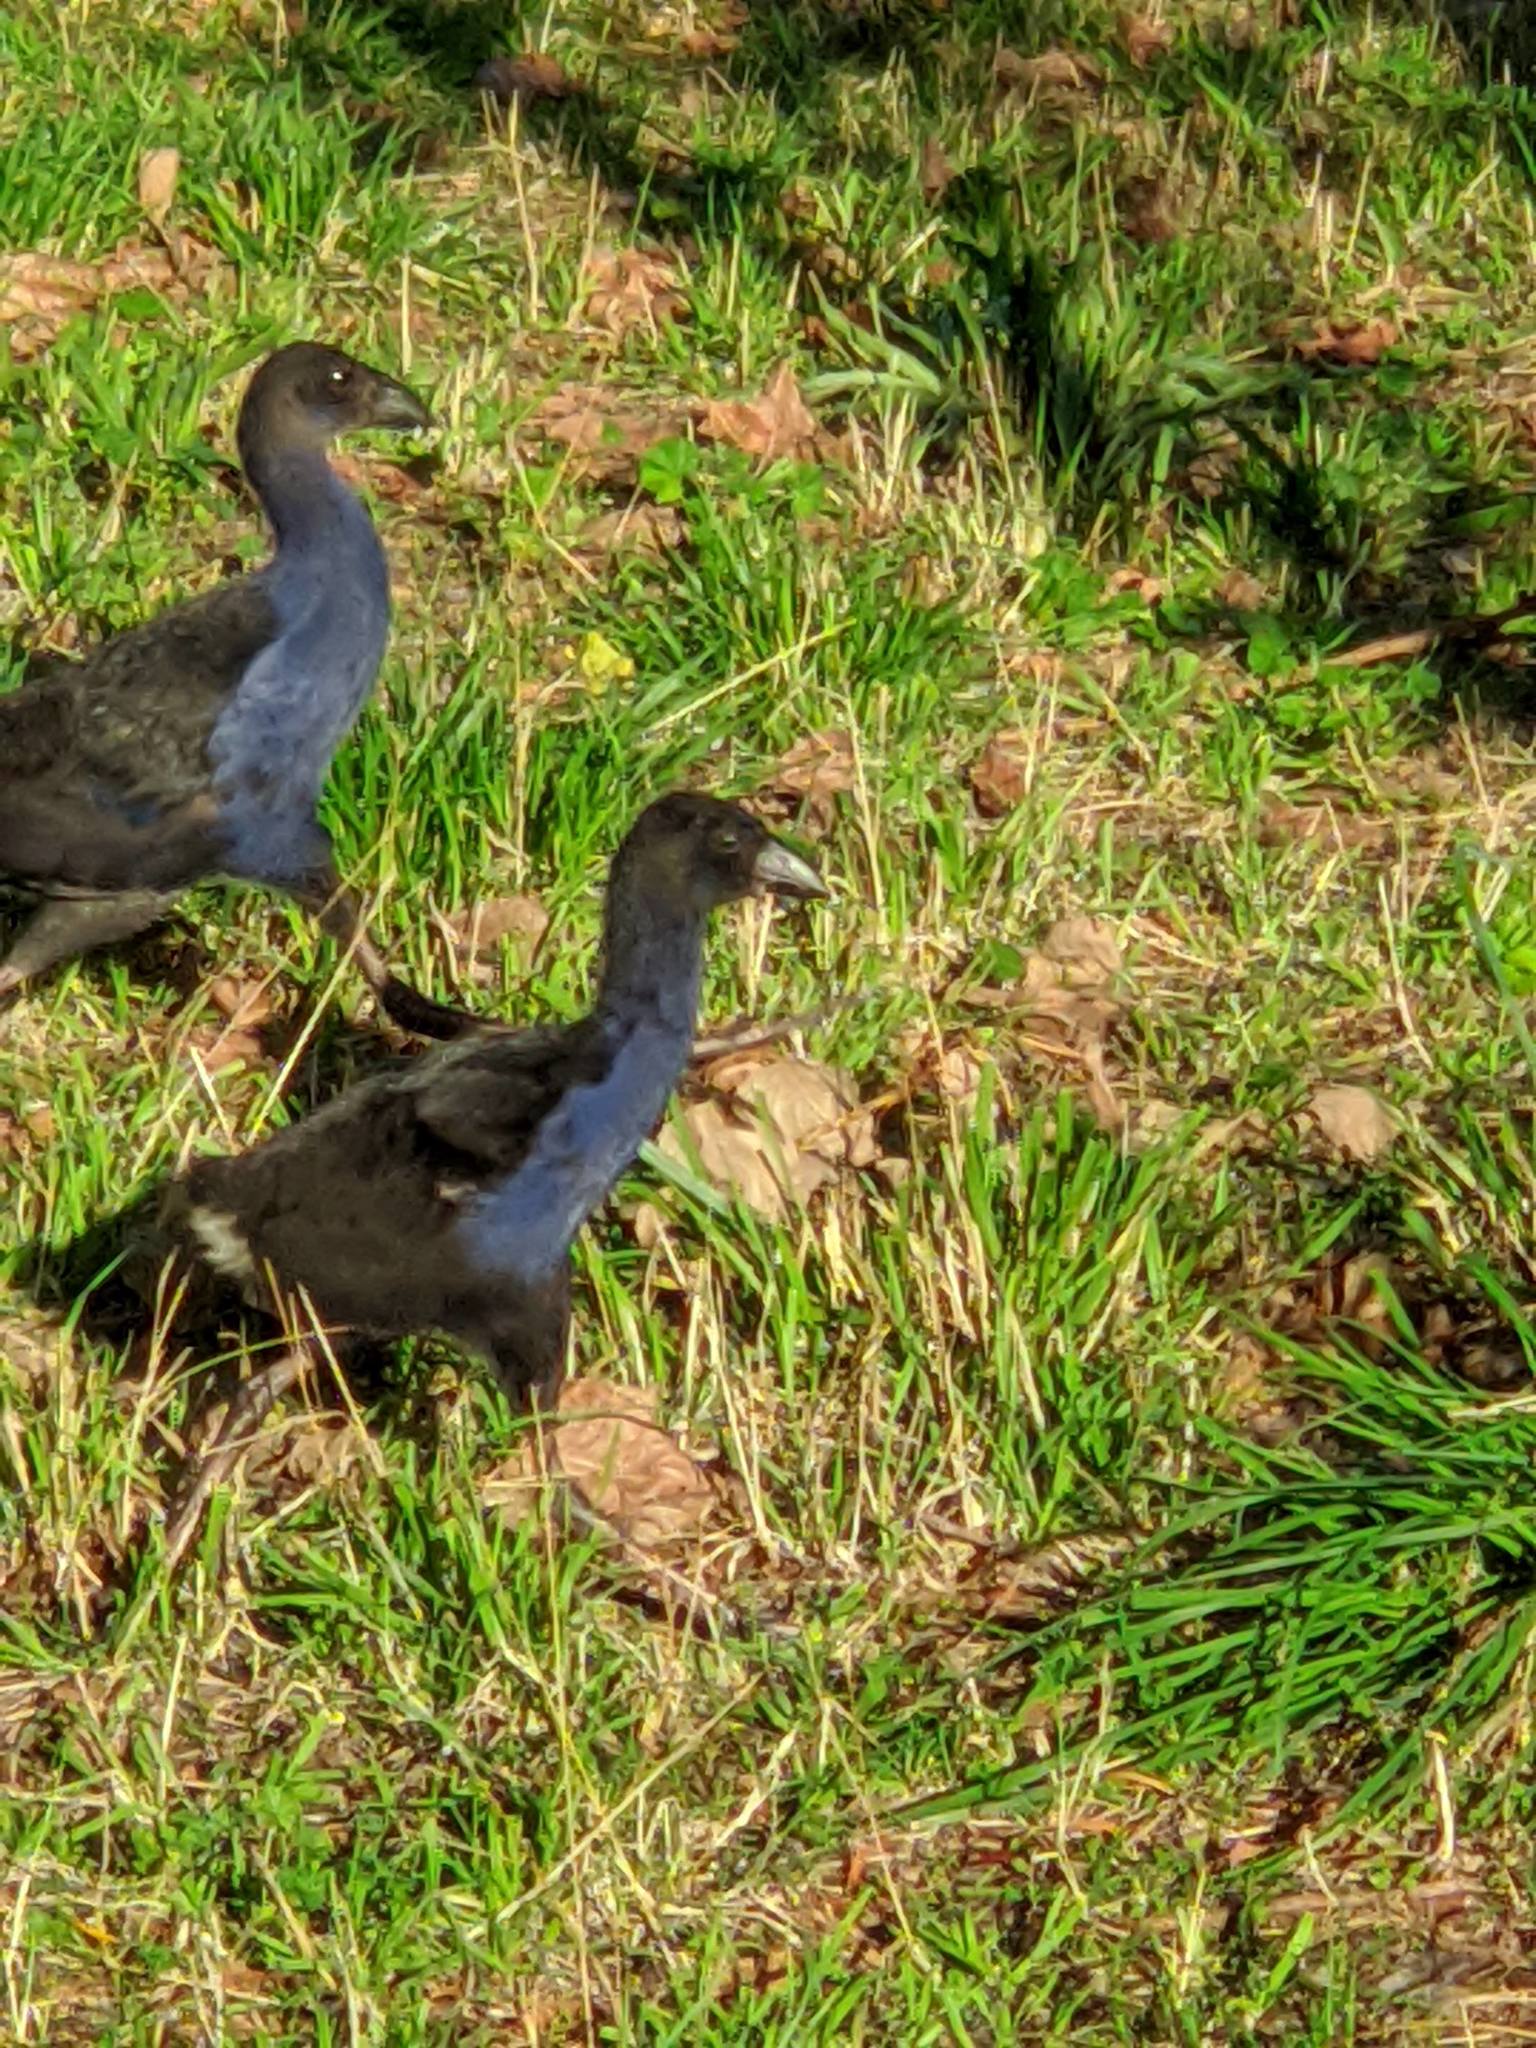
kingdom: Animalia
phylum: Chordata
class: Aves
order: Gruiformes
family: Rallidae
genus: Porphyrio
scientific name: Porphyrio melanotus
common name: Australasian swamphen
